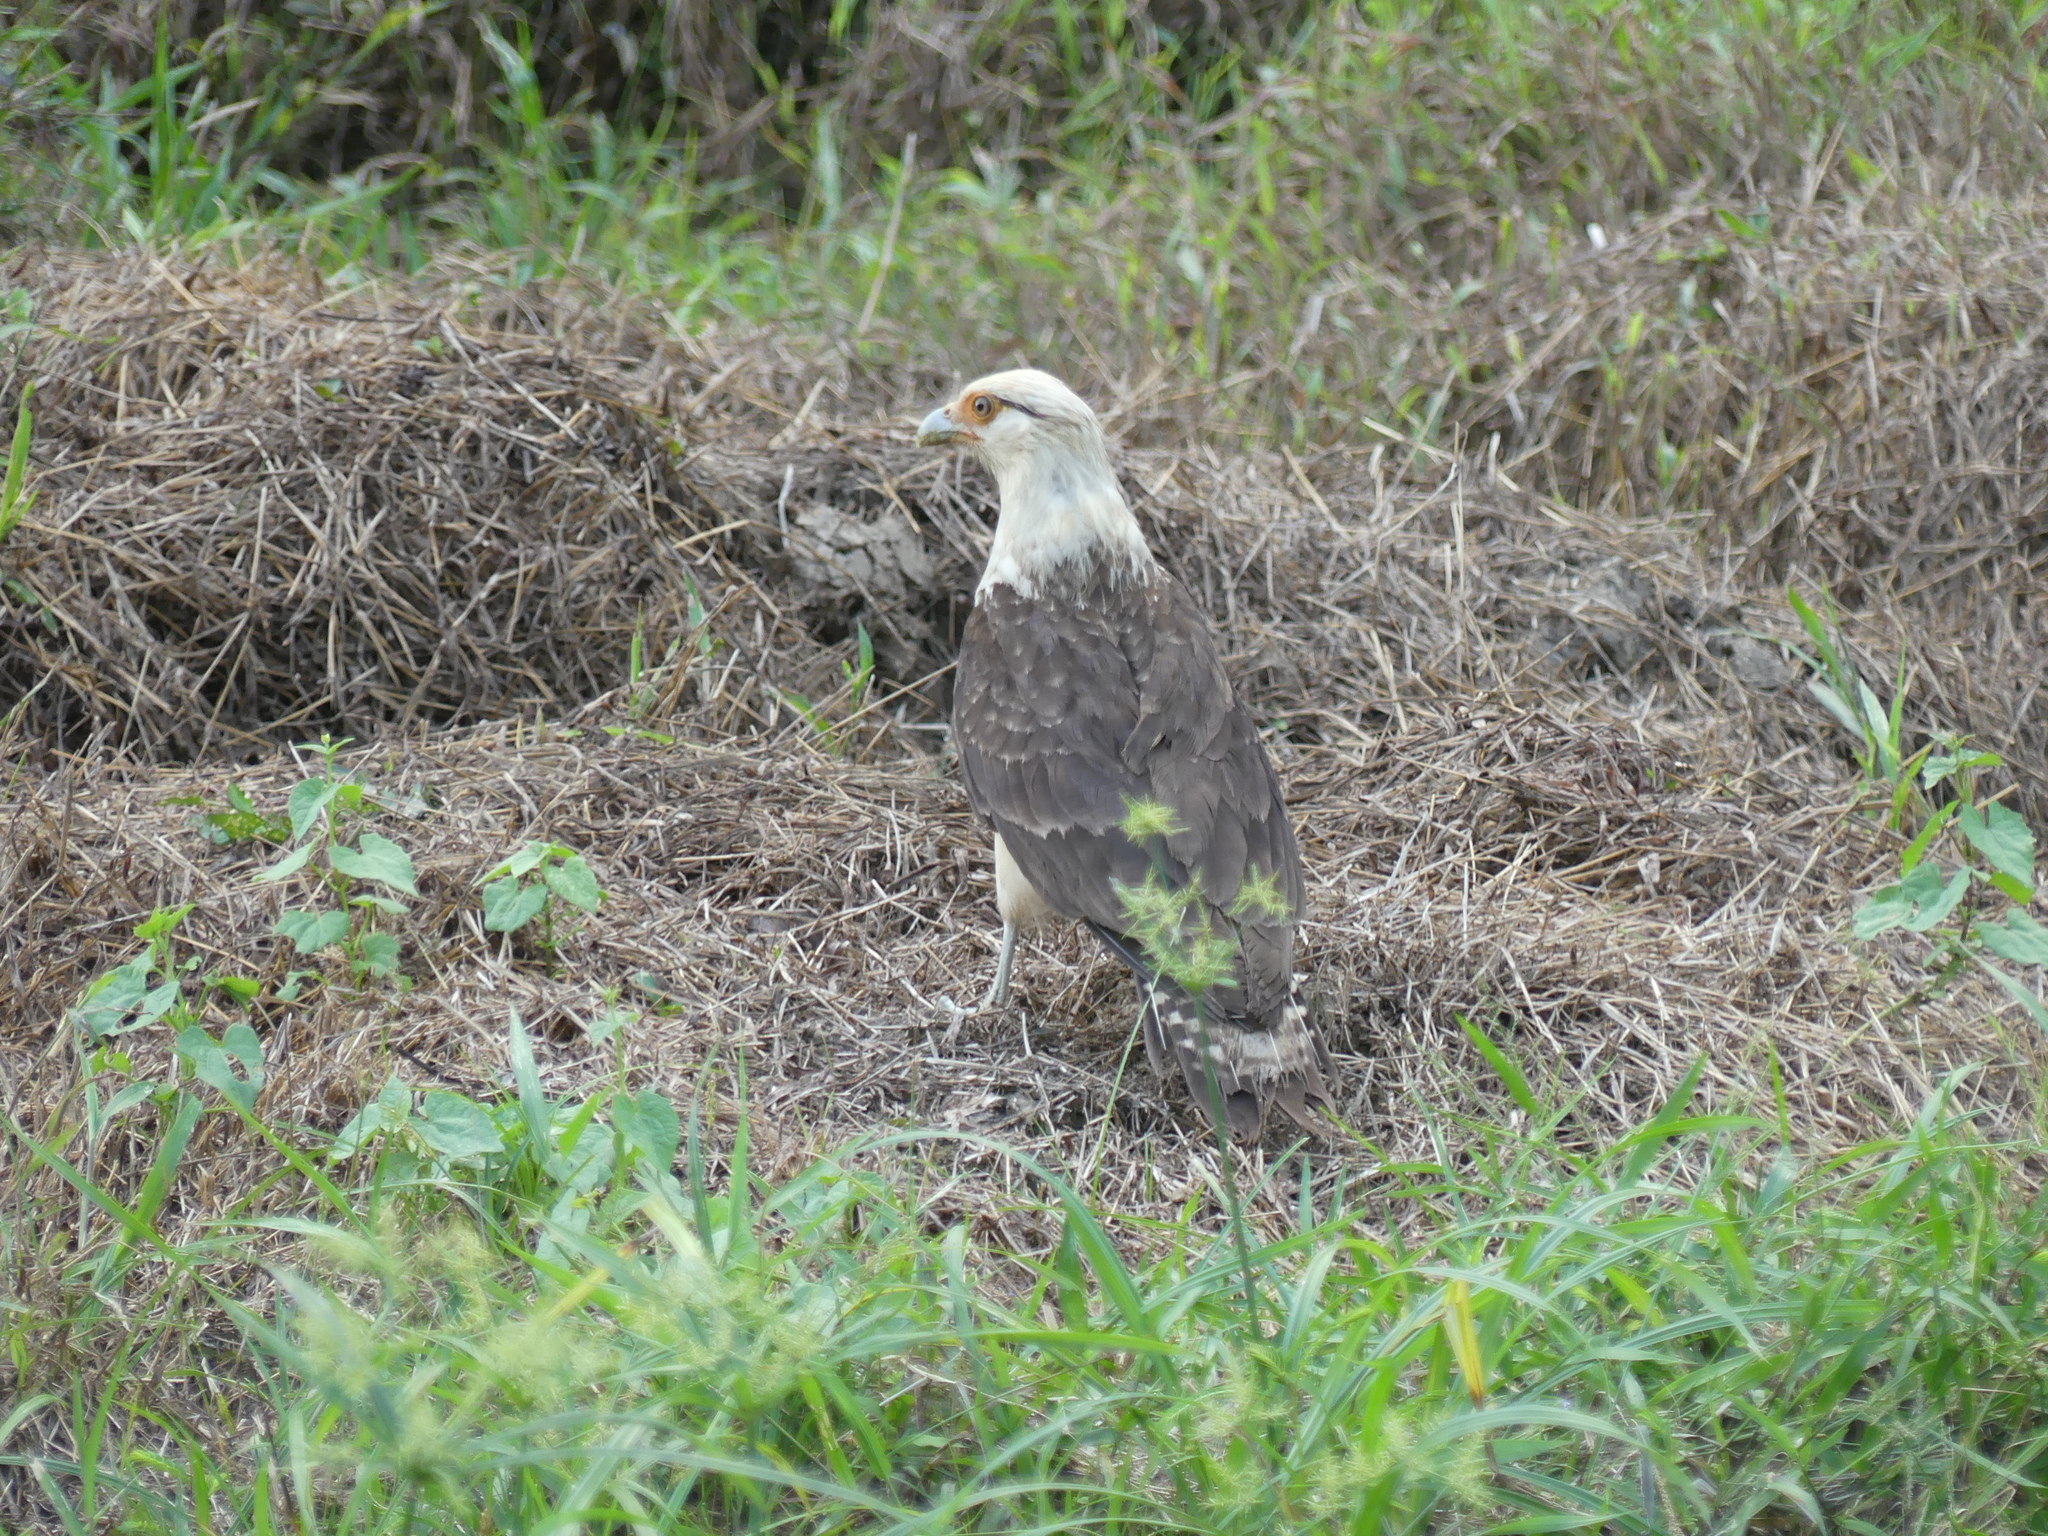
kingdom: Animalia
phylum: Chordata
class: Aves
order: Falconiformes
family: Falconidae
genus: Daptrius
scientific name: Daptrius
